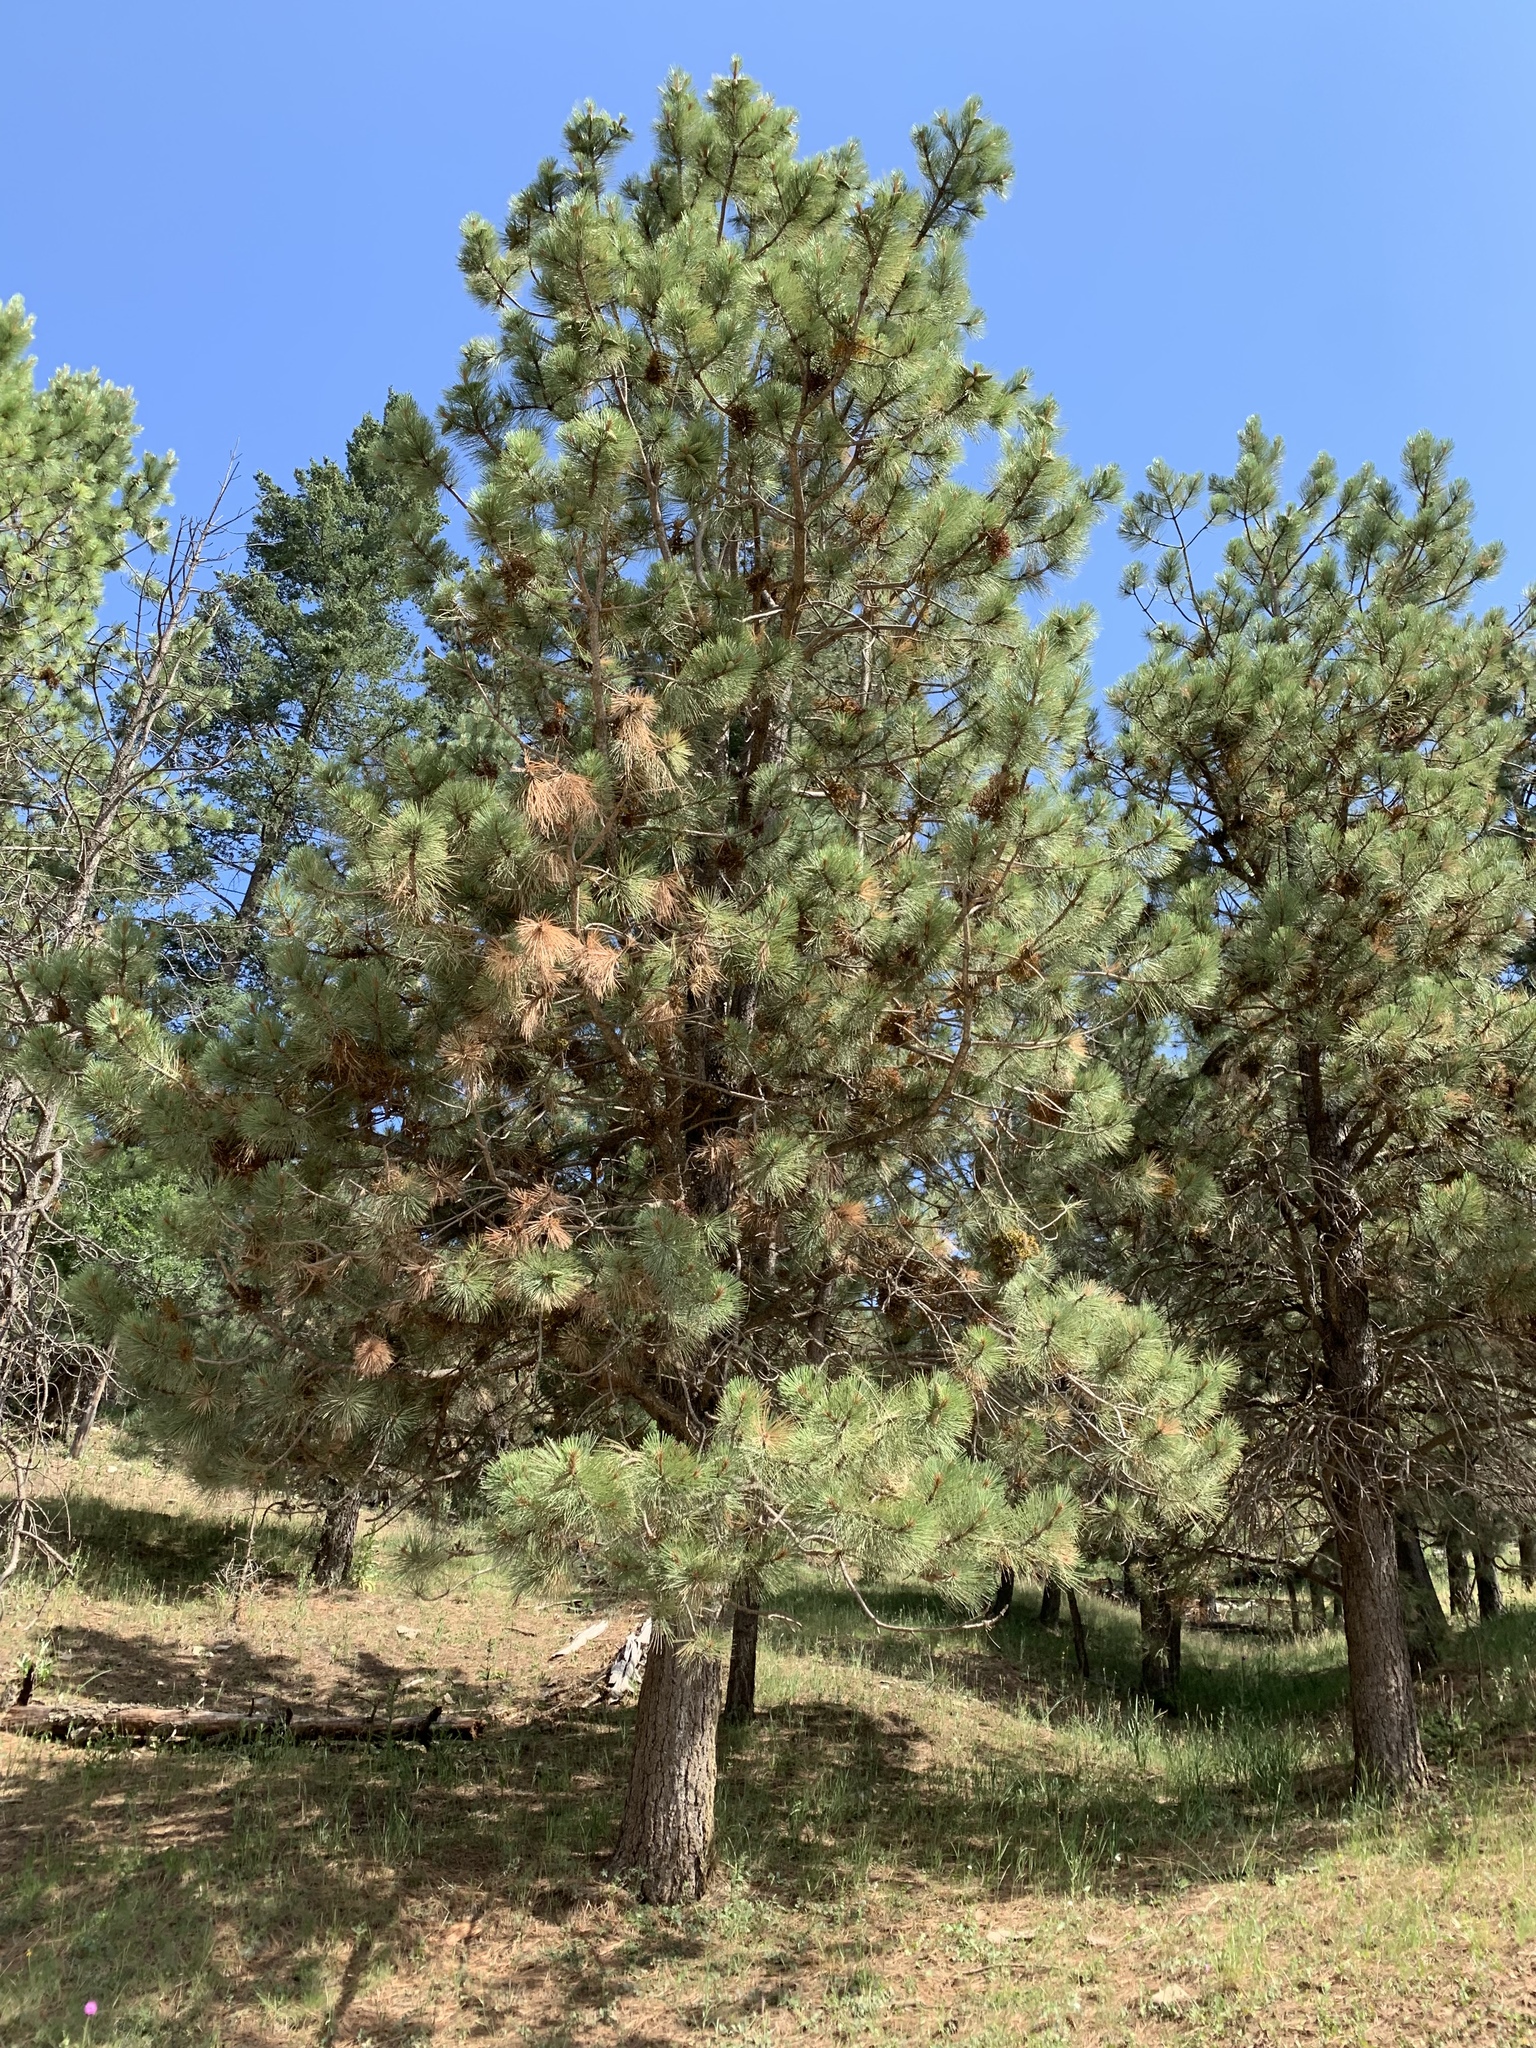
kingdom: Plantae
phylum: Tracheophyta
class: Pinopsida
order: Pinales
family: Pinaceae
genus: Pinus
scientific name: Pinus ponderosa
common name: Western yellow-pine
